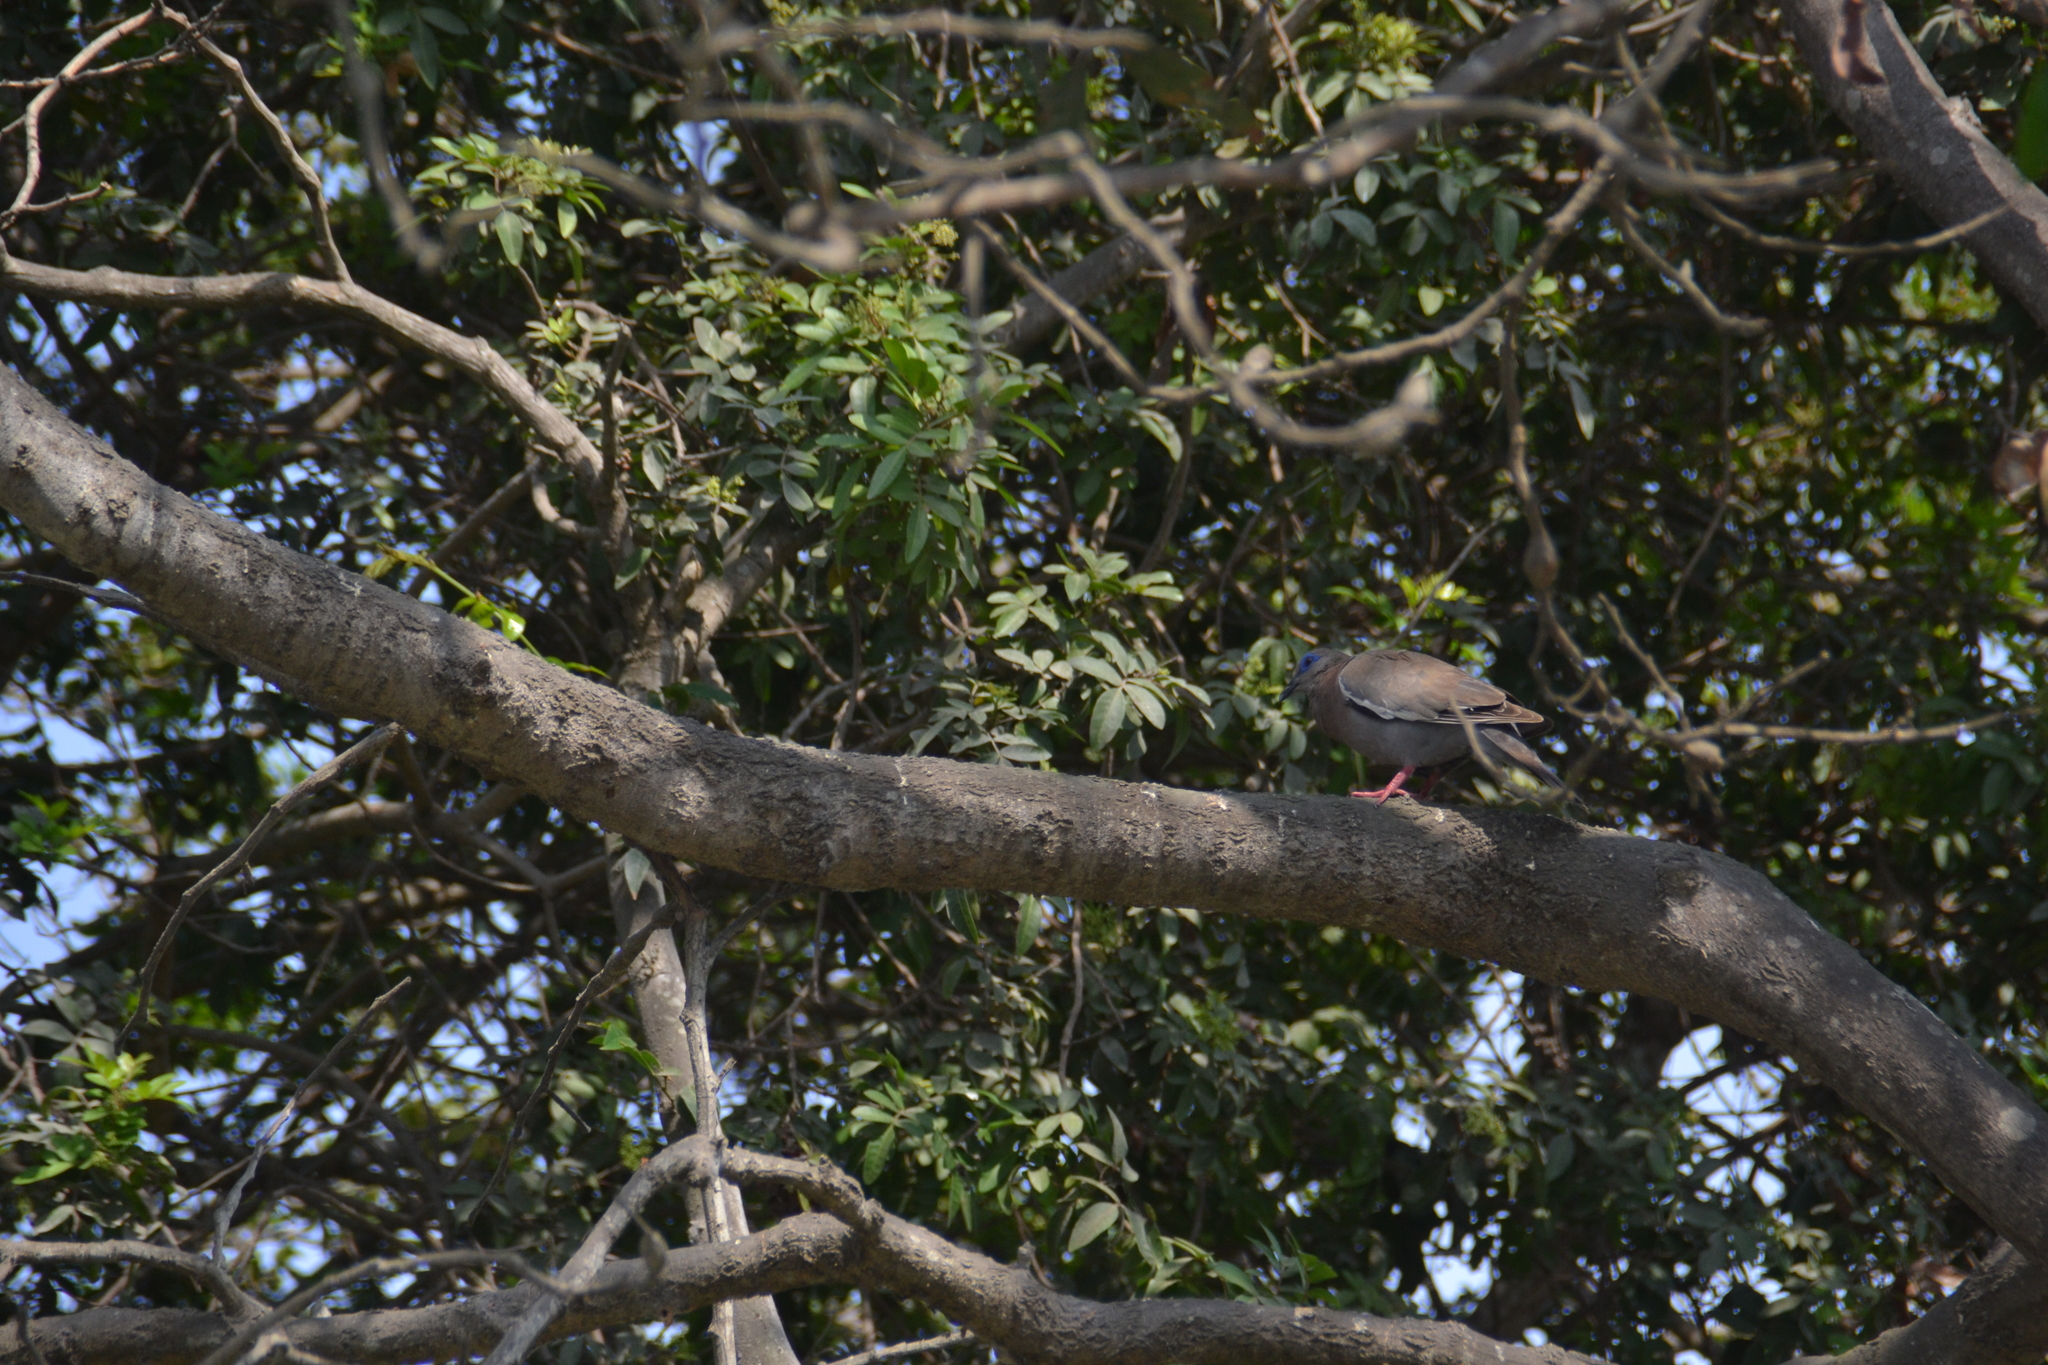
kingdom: Animalia
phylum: Chordata
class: Aves
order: Columbiformes
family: Columbidae
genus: Zenaida
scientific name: Zenaida meloda
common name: West peruvian dove
